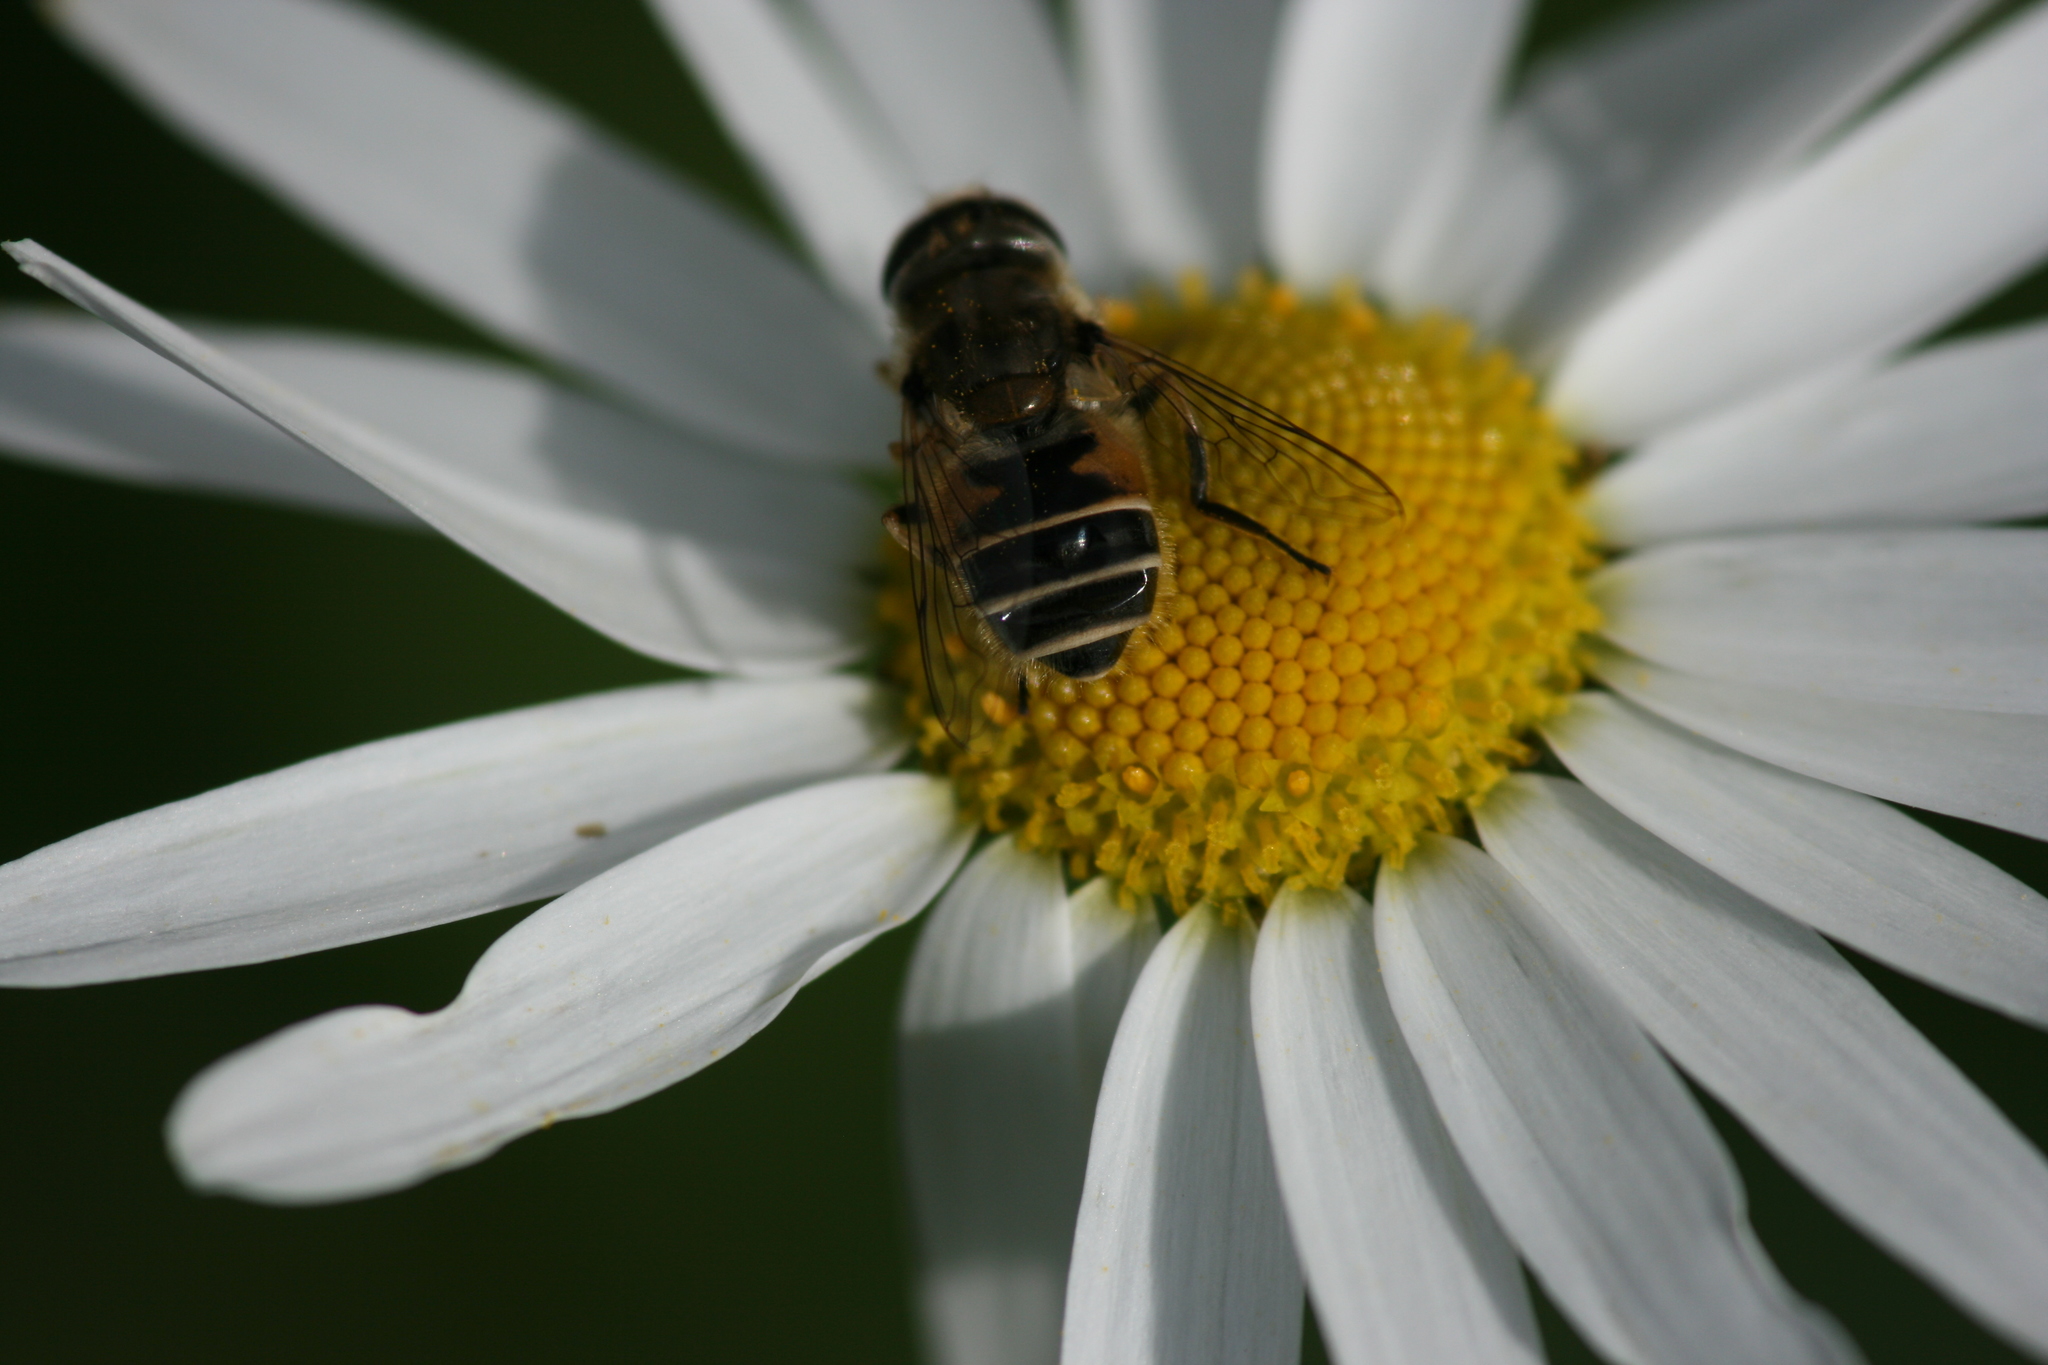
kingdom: Animalia
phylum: Arthropoda
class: Insecta
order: Diptera
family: Syrphidae
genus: Eristalis
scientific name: Eristalis arbustorum
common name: Hover fly
